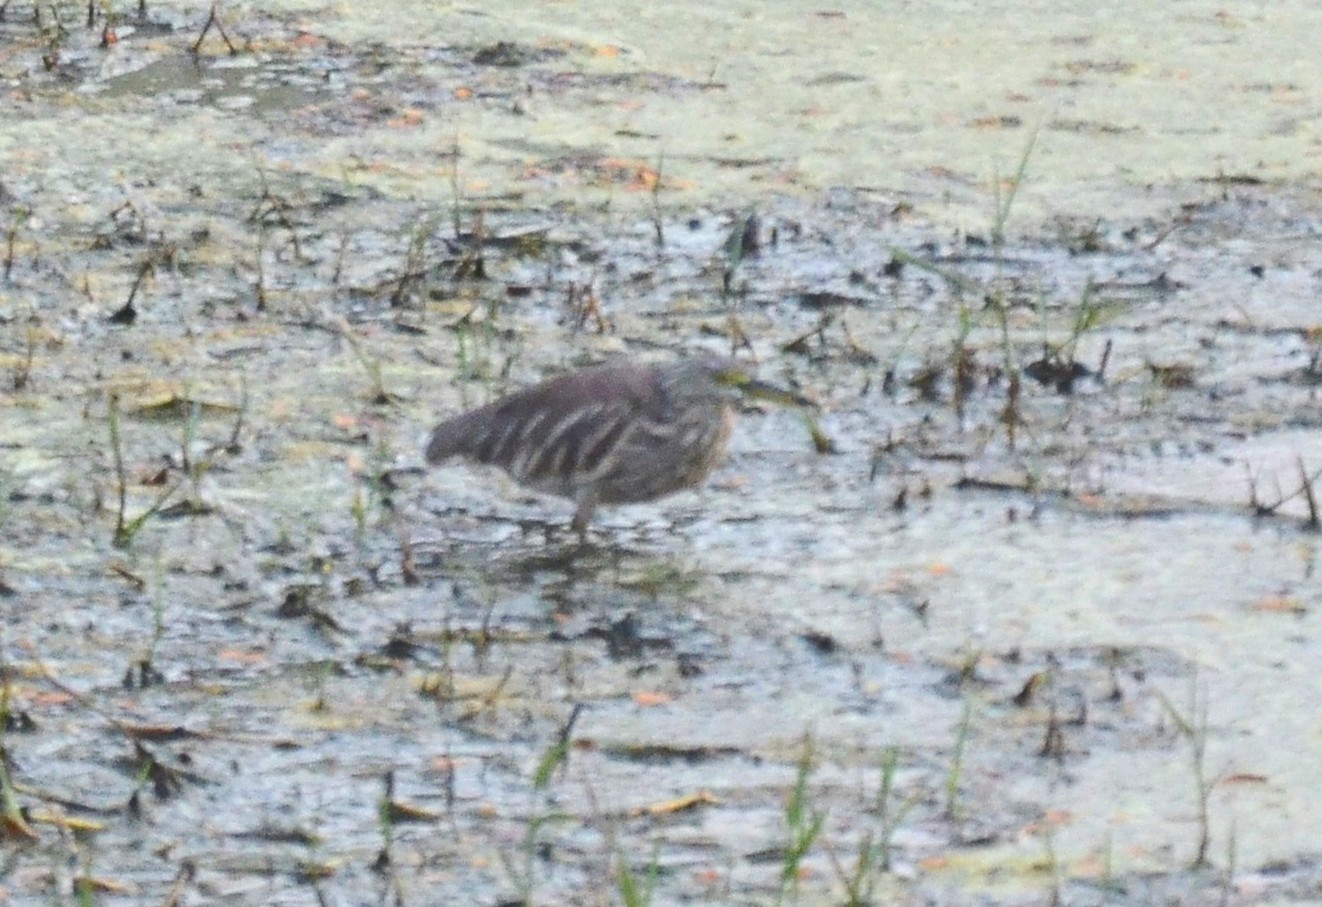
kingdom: Animalia
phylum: Chordata
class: Aves
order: Pelecaniformes
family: Ardeidae
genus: Ardeola
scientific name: Ardeola grayii
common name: Indian pond heron
